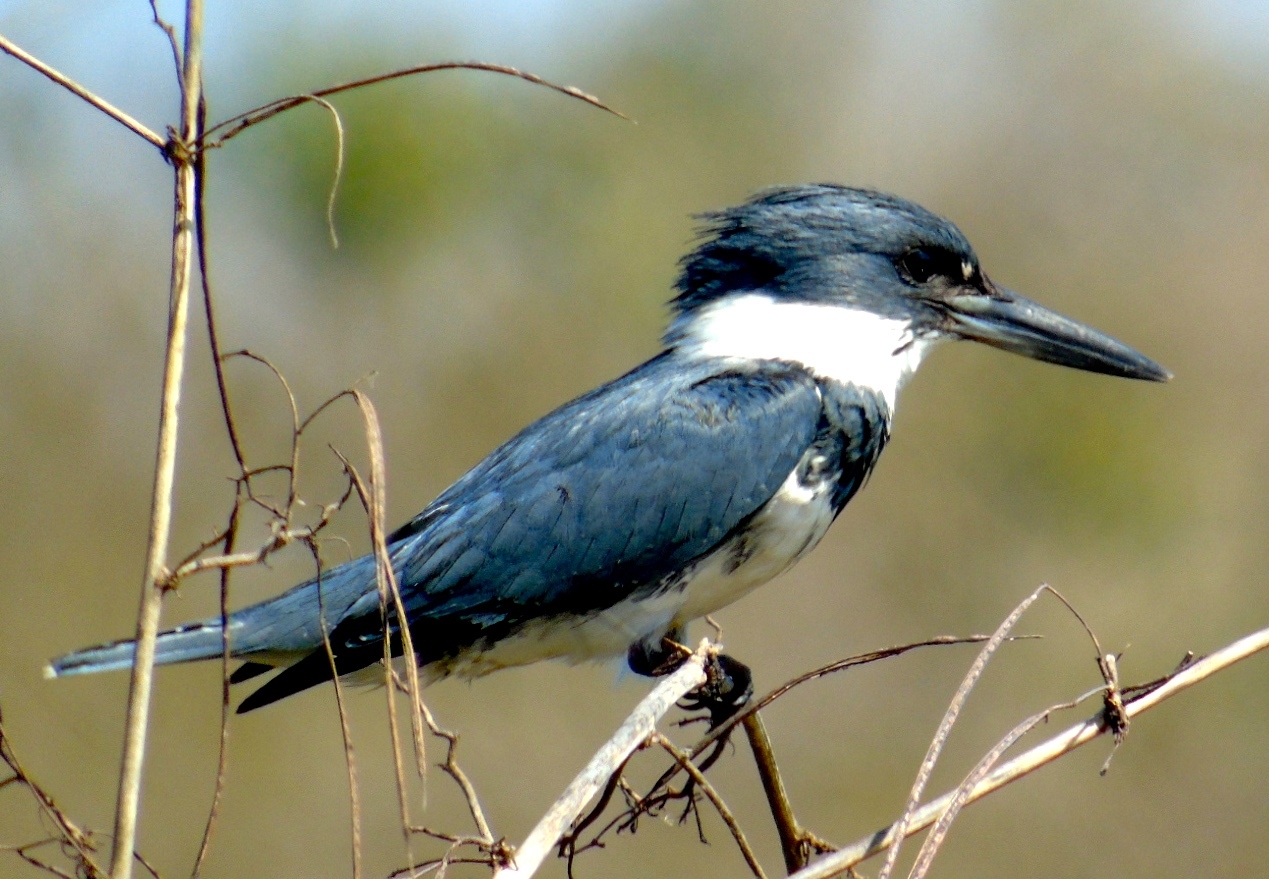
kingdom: Animalia
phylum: Chordata
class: Aves
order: Coraciiformes
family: Alcedinidae
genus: Megaceryle
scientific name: Megaceryle alcyon
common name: Belted kingfisher
